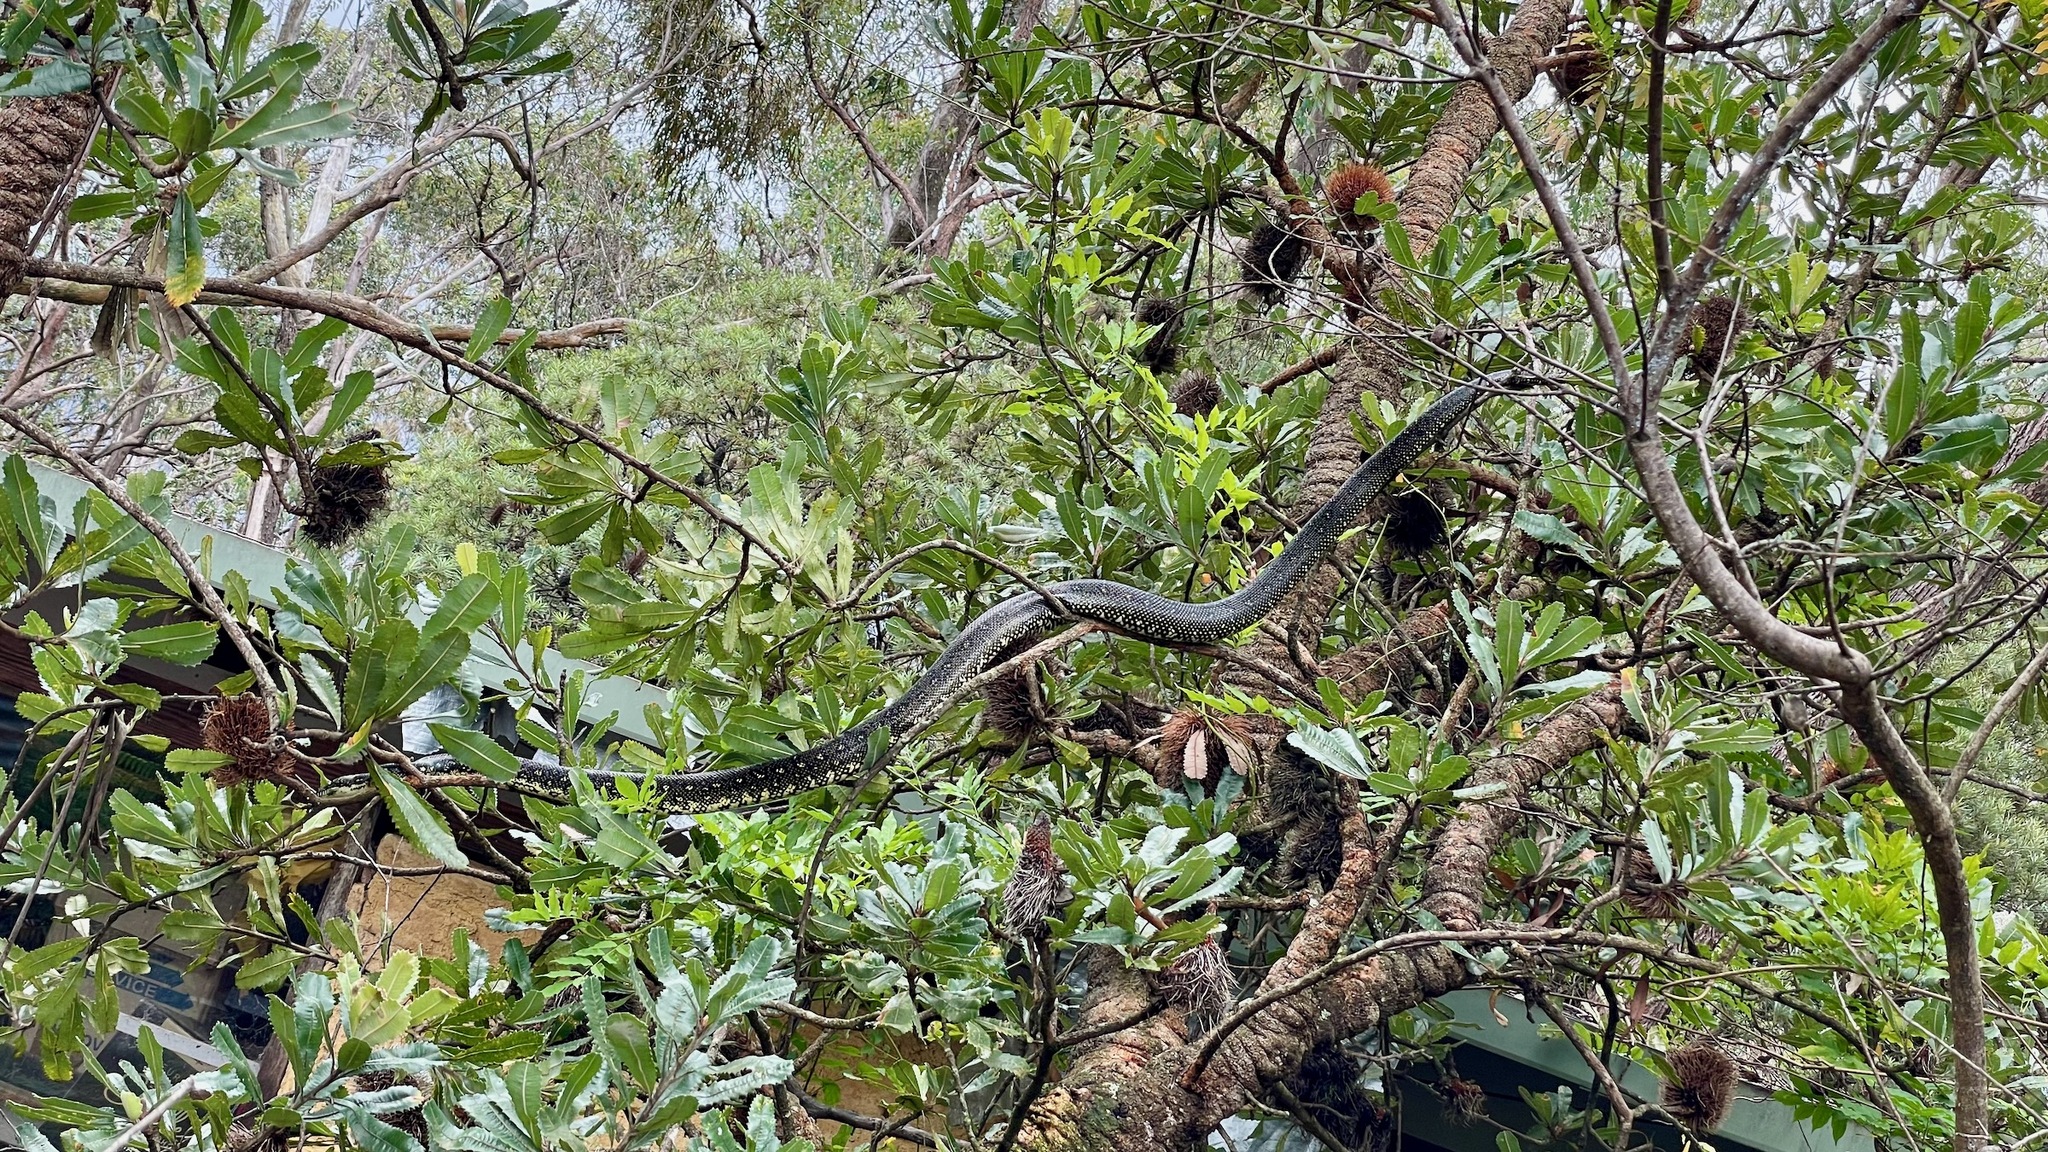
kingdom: Animalia
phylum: Chordata
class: Squamata
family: Pythonidae
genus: Morelia
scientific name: Morelia spilota
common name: Carpet python
